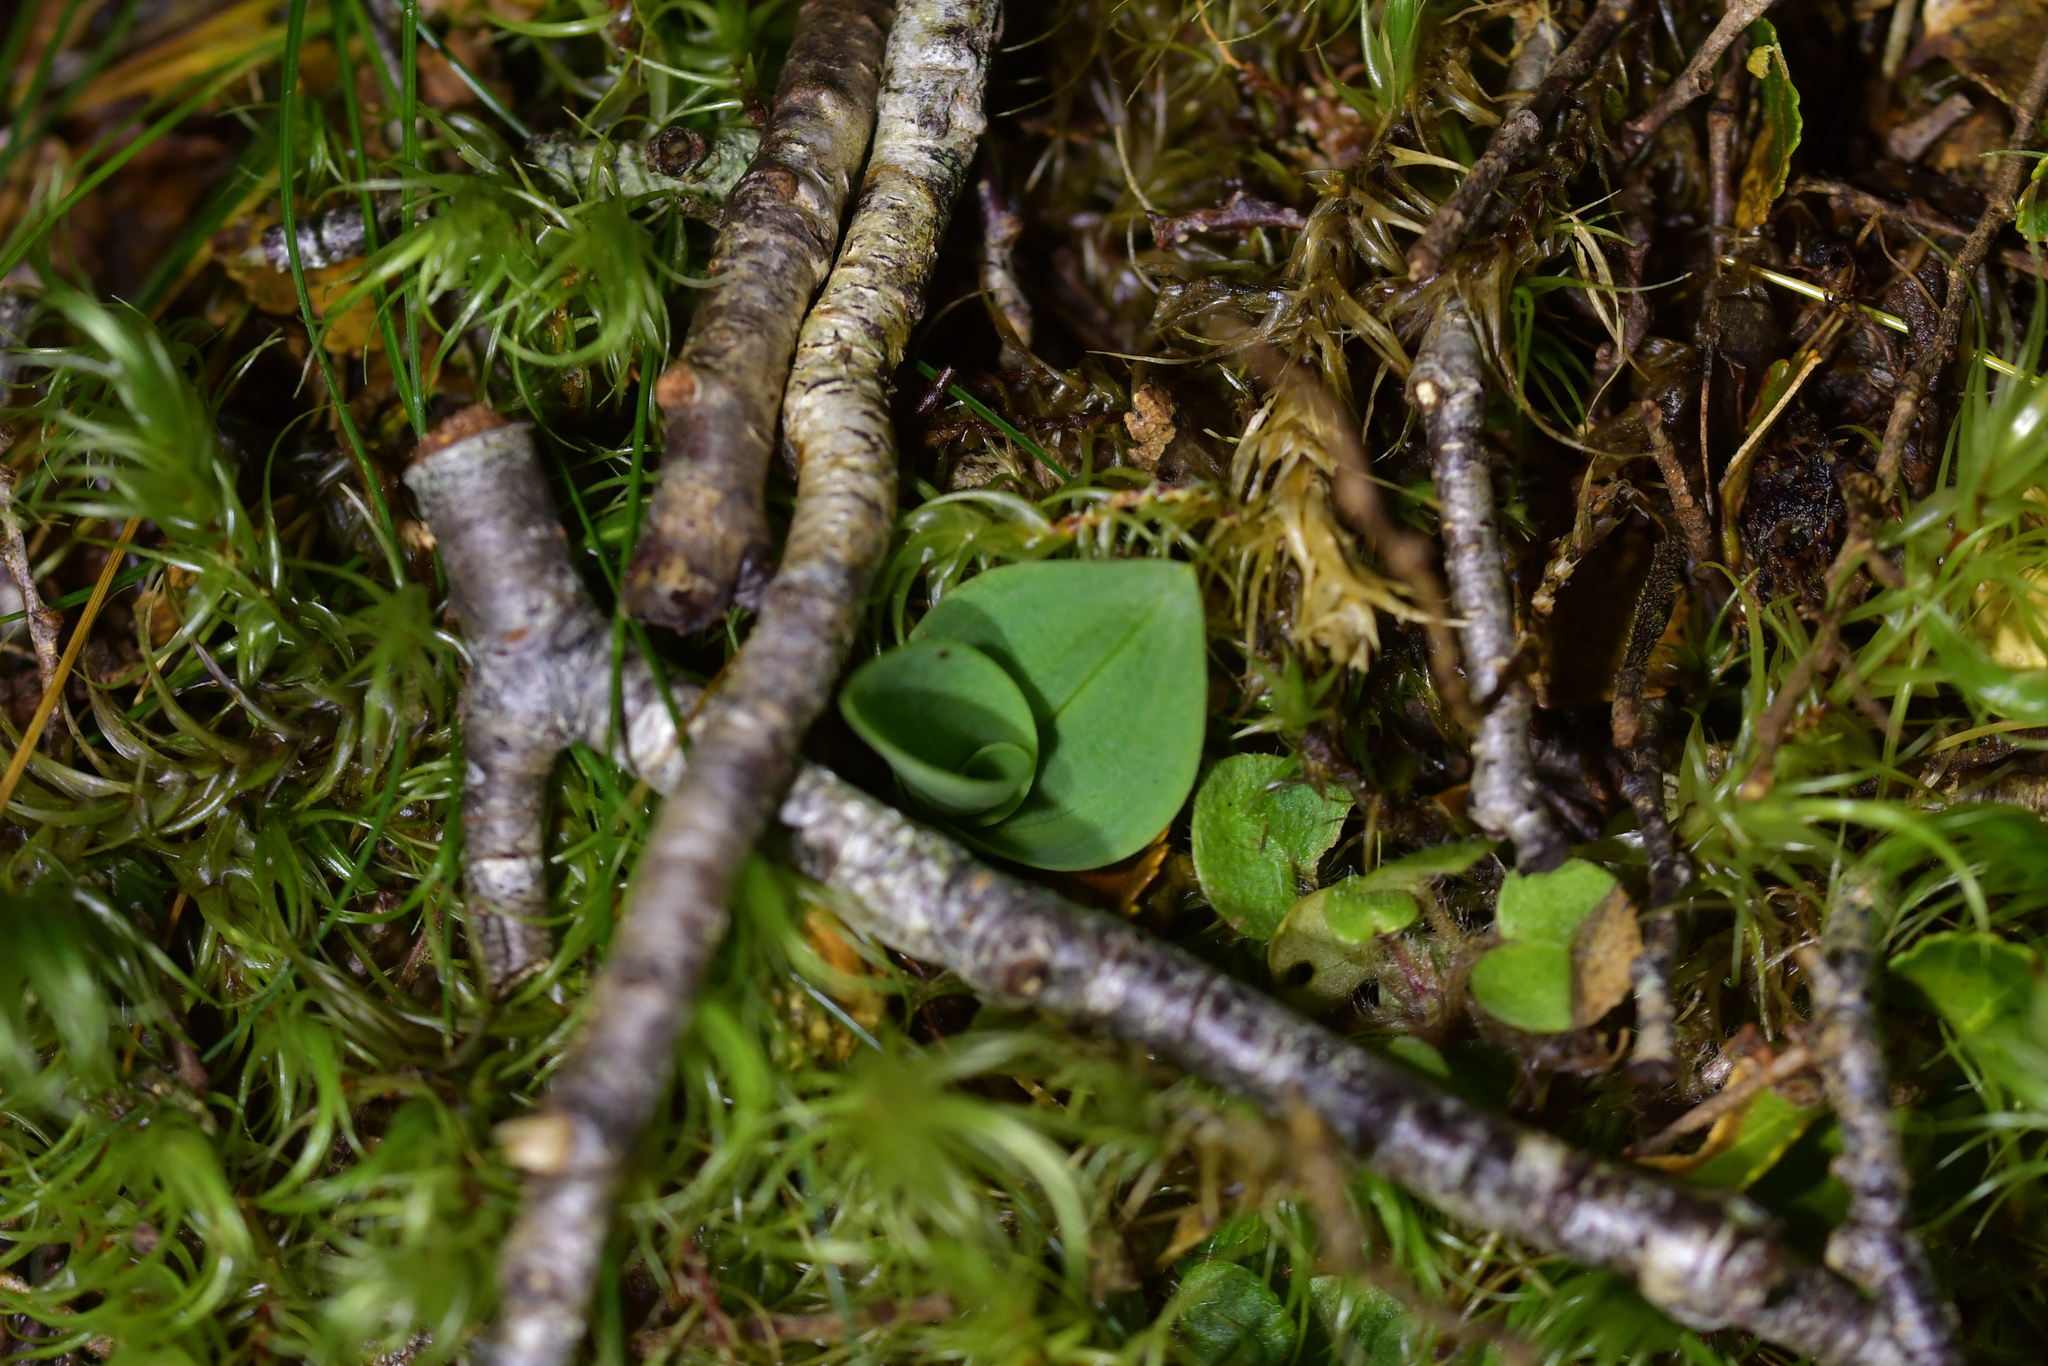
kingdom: Plantae
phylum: Tracheophyta
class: Liliopsida
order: Asparagales
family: Orchidaceae
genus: Chiloglottis
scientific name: Chiloglottis cornuta
